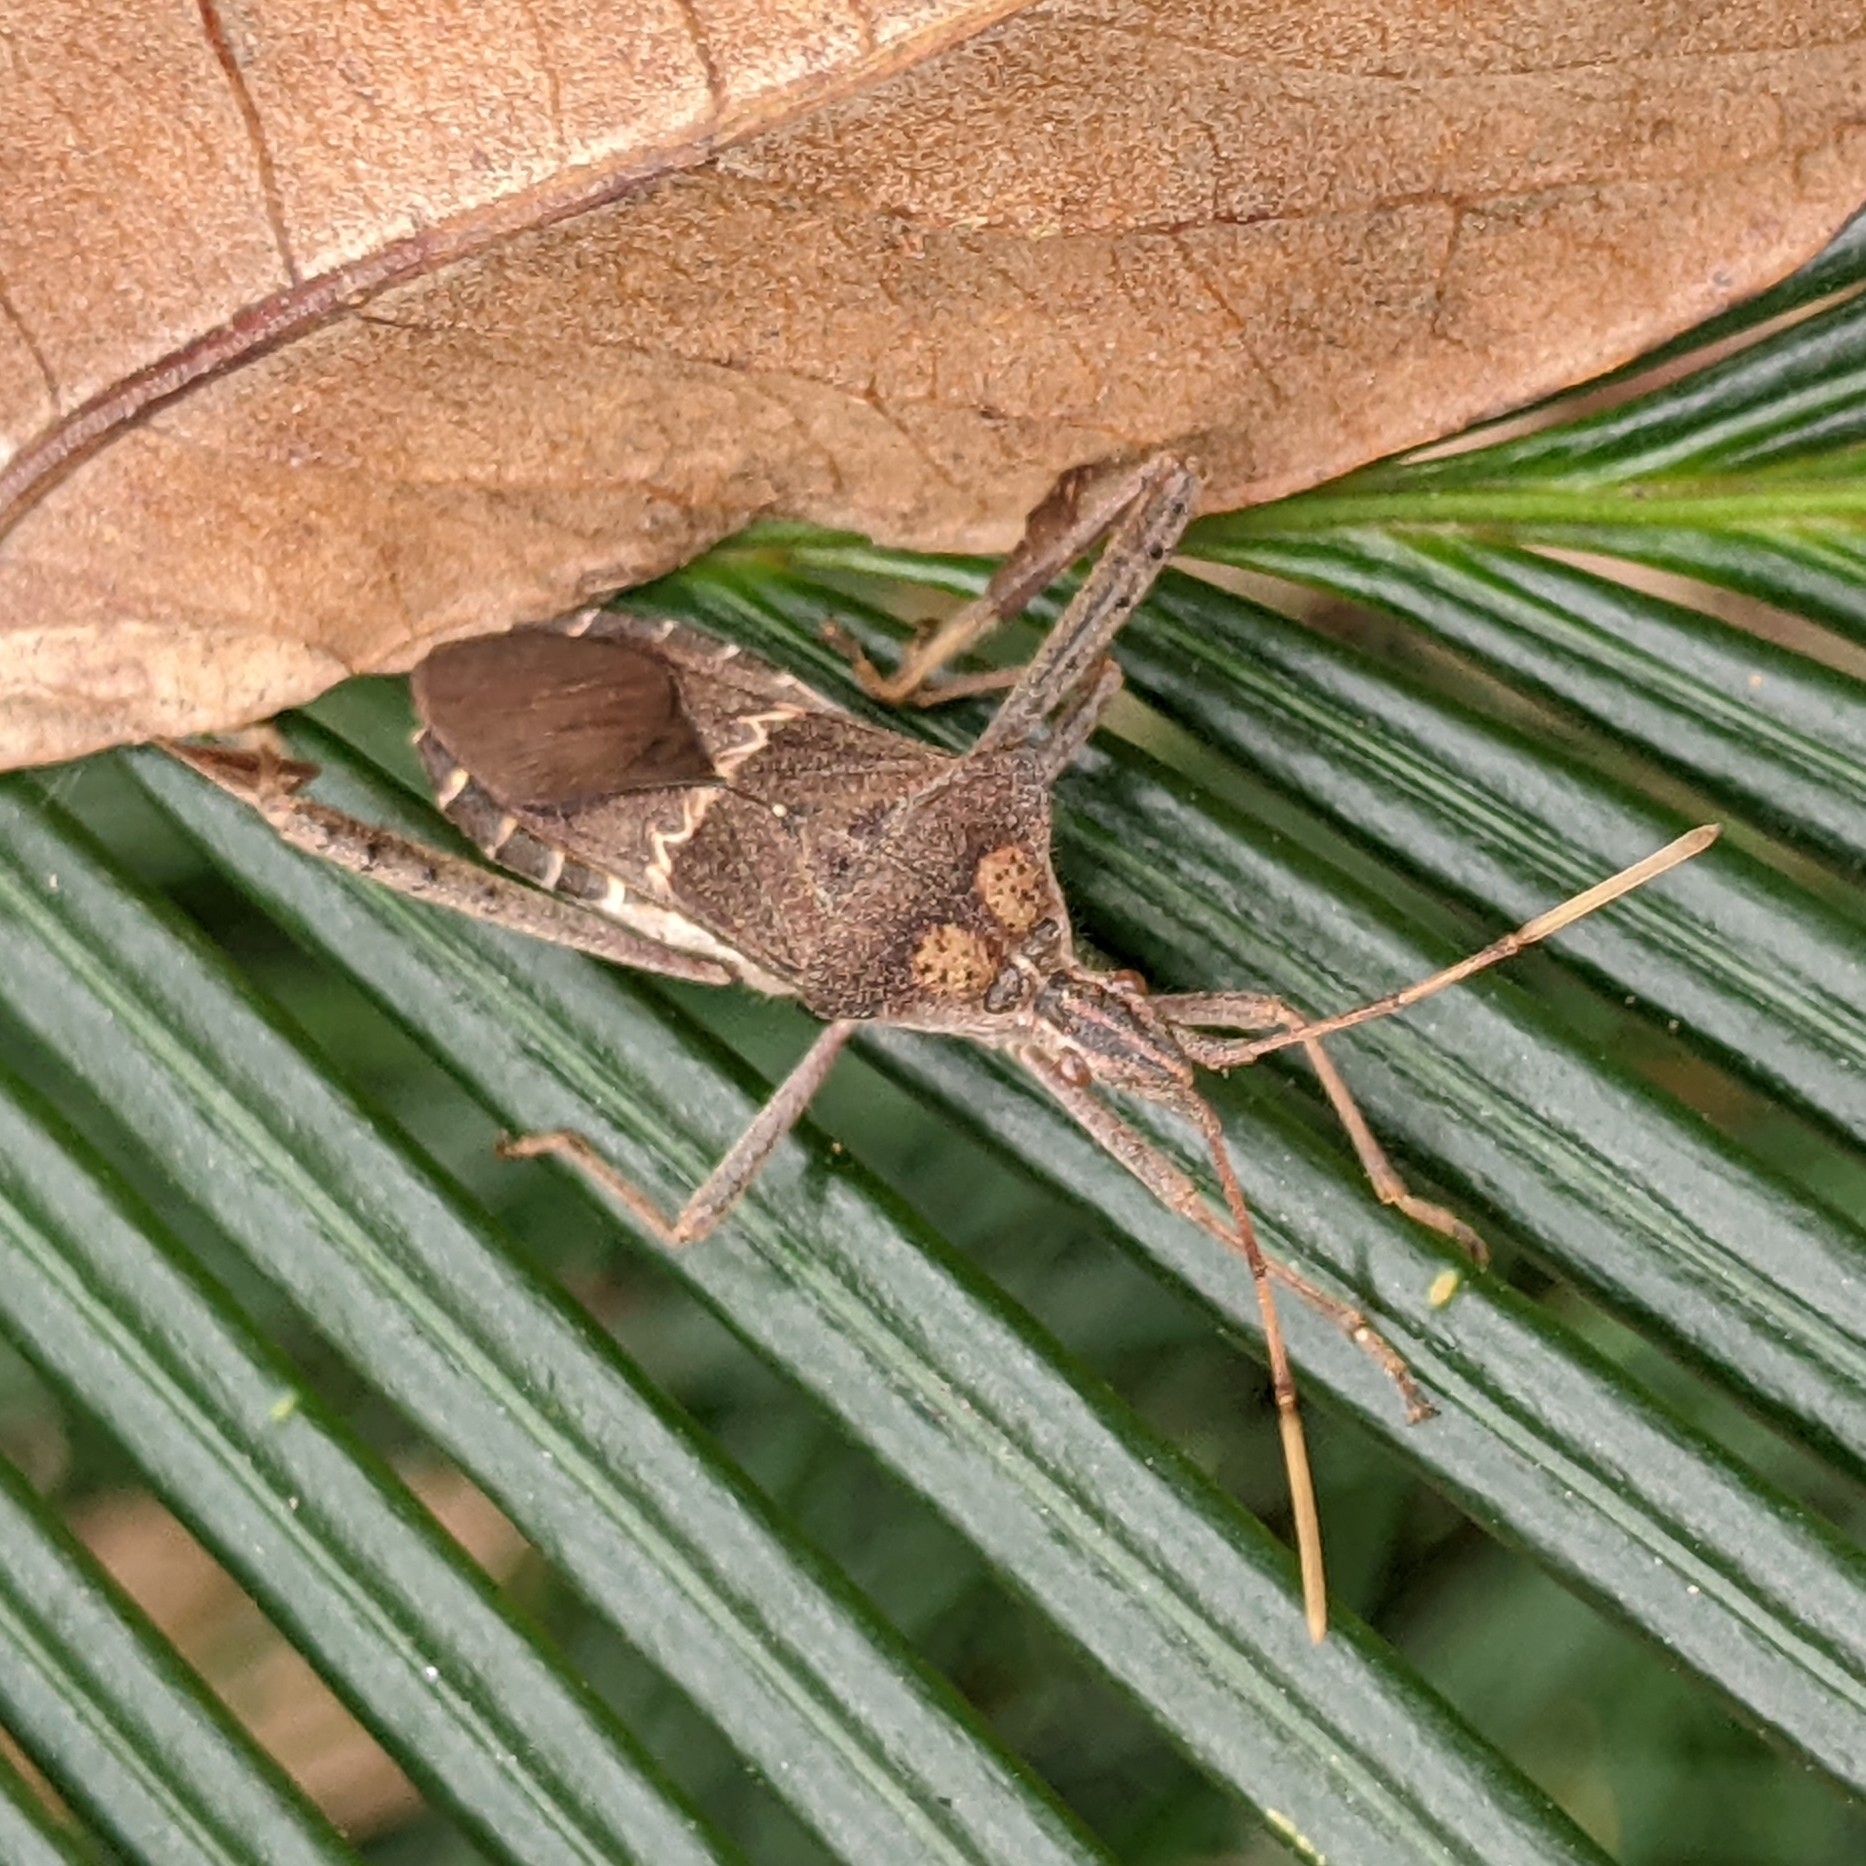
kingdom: Animalia
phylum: Arthropoda
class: Insecta
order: Hemiptera
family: Coreidae
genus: Leptoglossus
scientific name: Leptoglossus zonatus
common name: Large-legged bug
